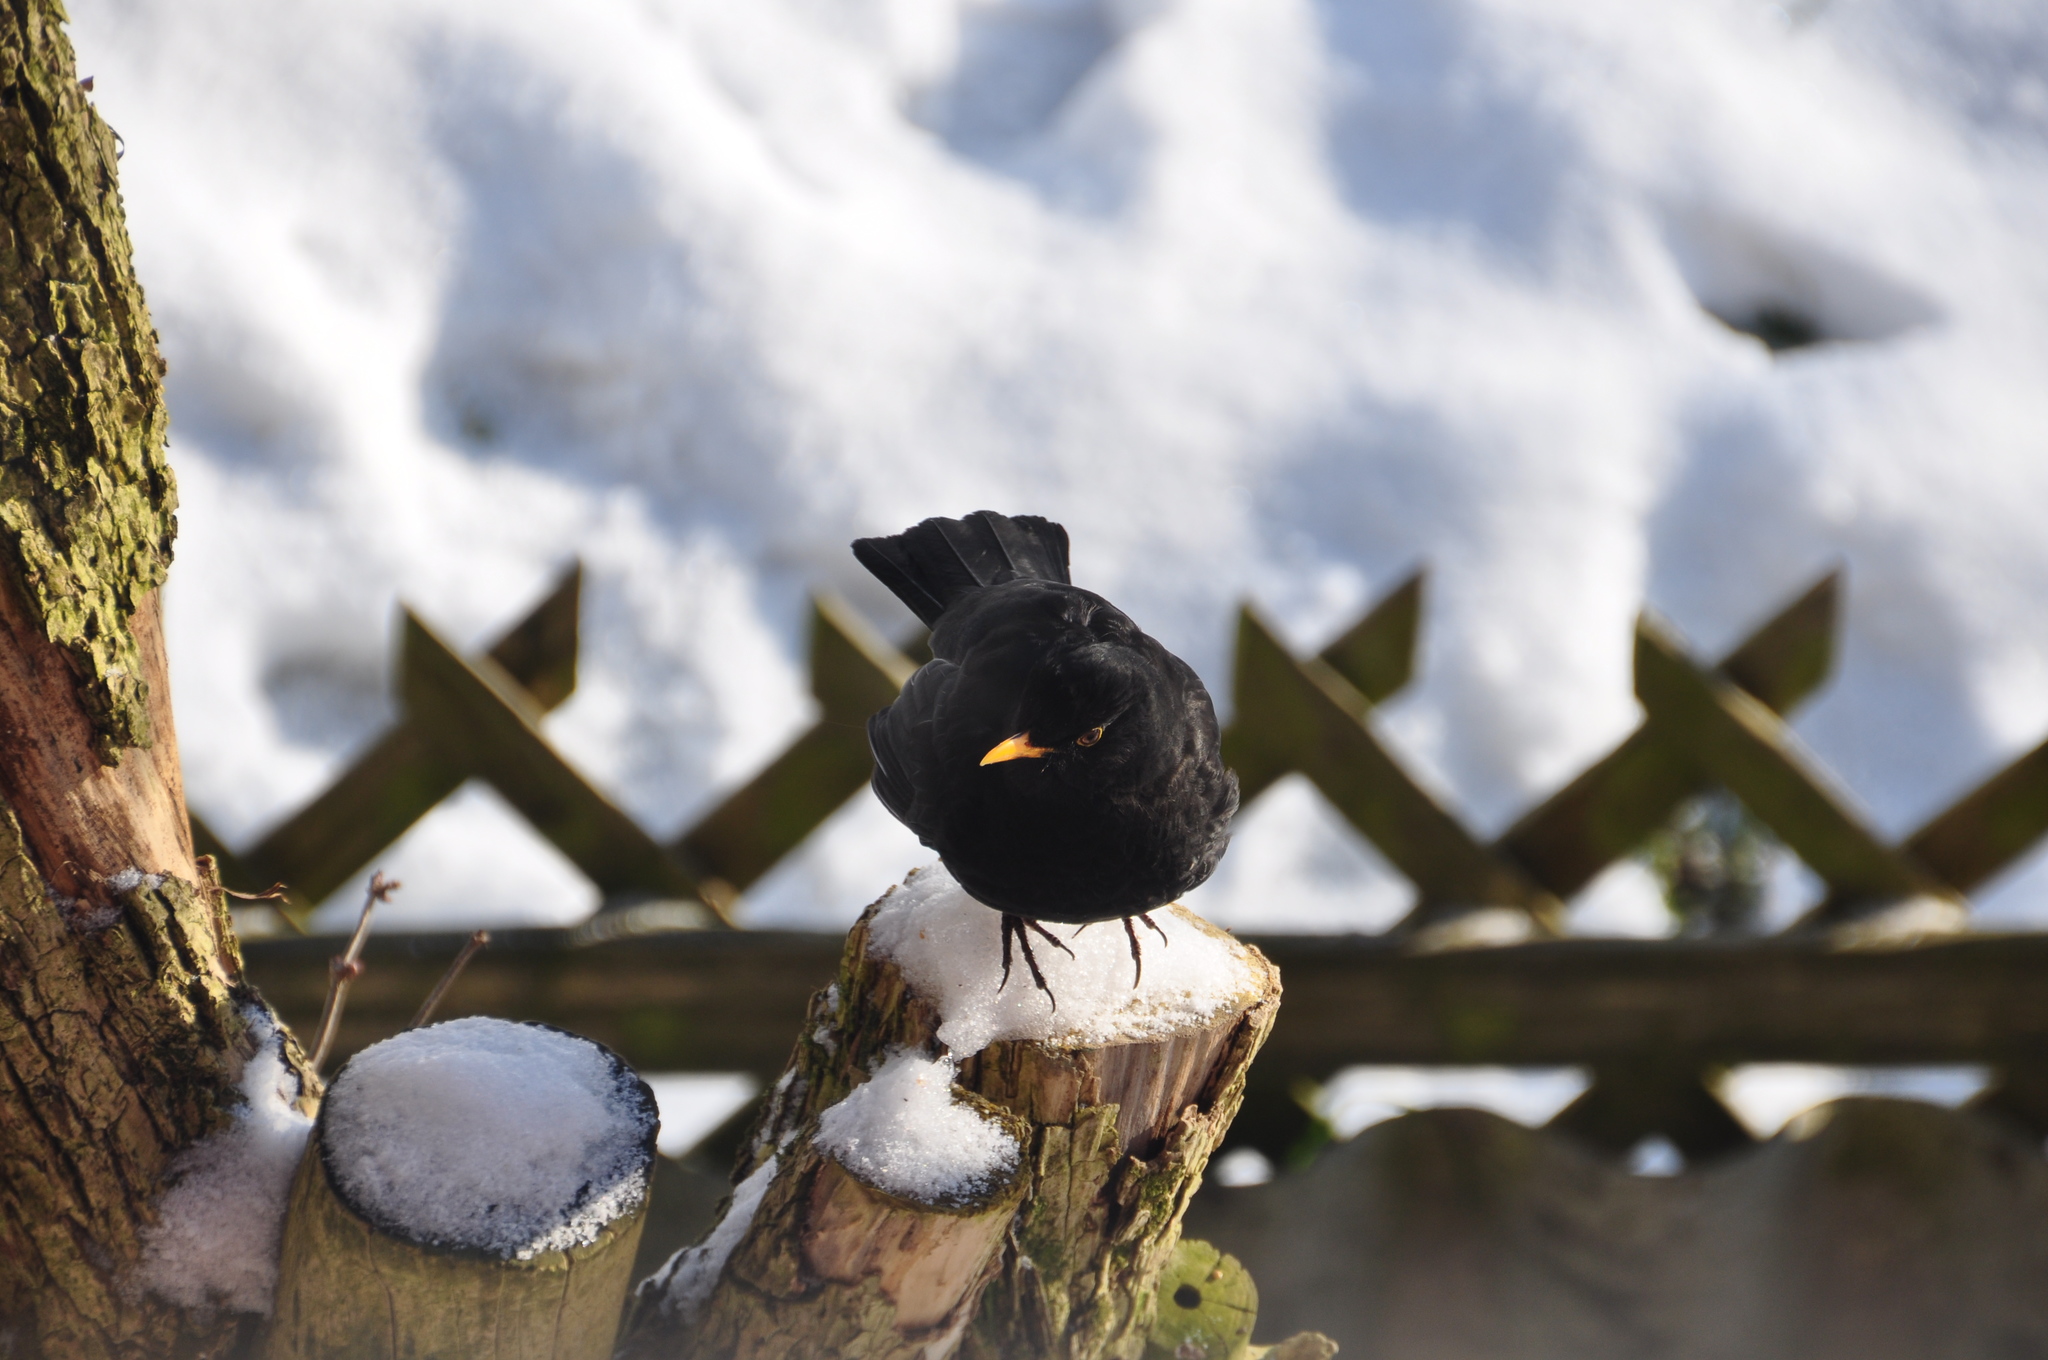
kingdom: Animalia
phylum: Chordata
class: Aves
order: Passeriformes
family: Turdidae
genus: Turdus
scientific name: Turdus merula
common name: Common blackbird
